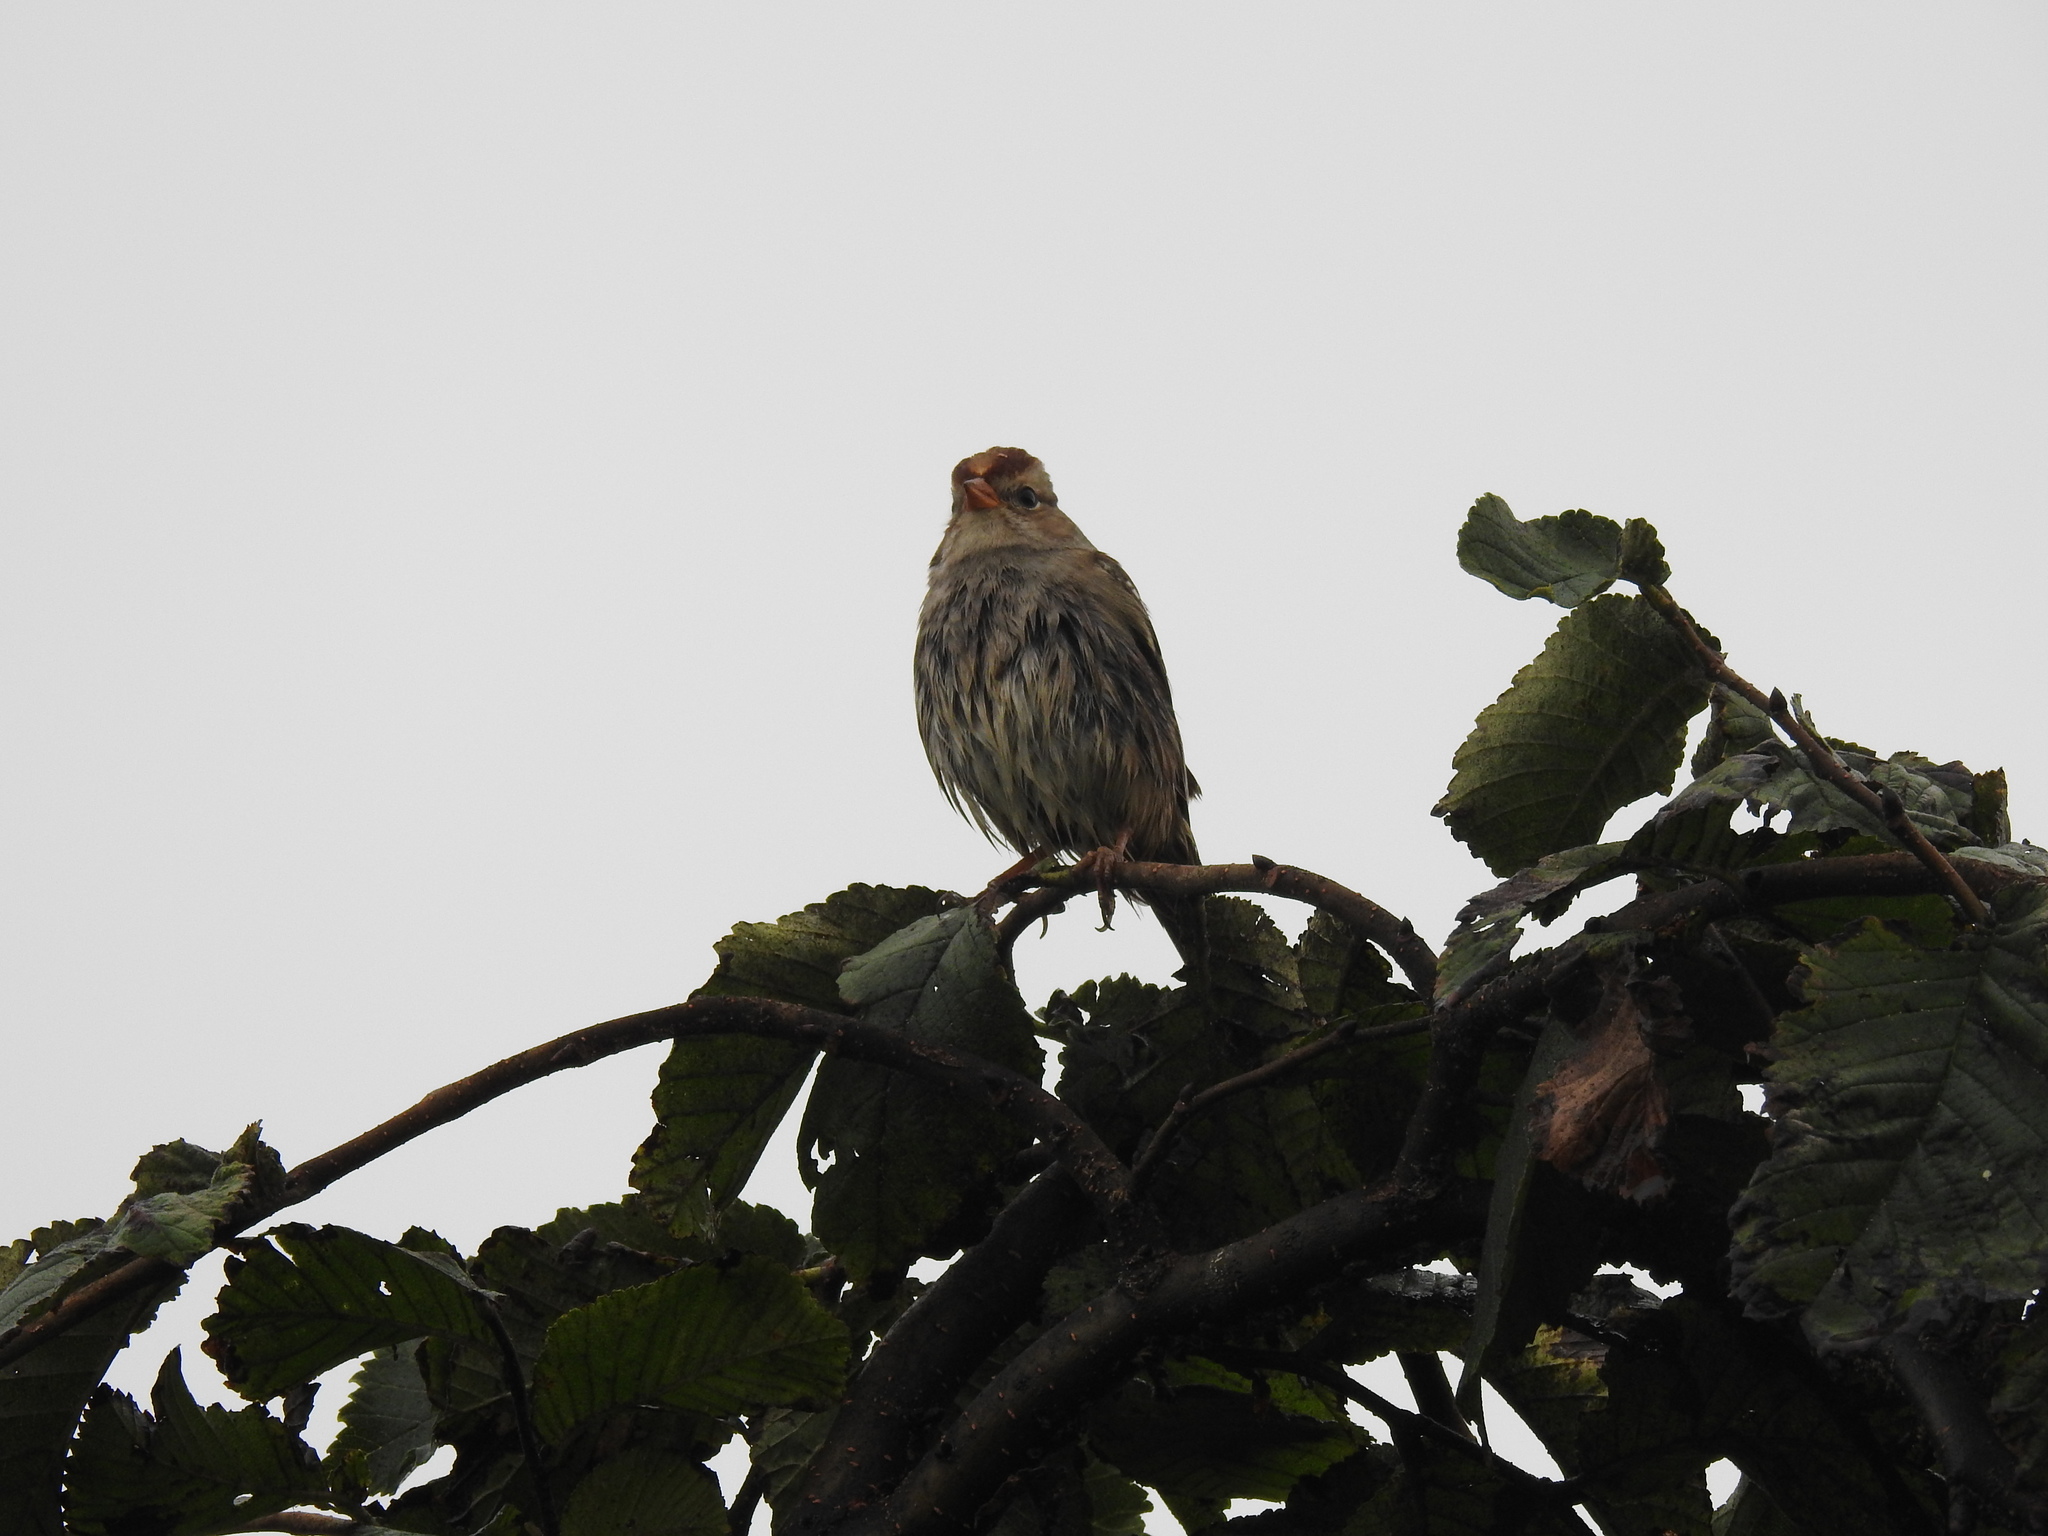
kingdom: Animalia
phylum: Chordata
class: Aves
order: Passeriformes
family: Passerellidae
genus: Zonotrichia
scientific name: Zonotrichia leucophrys
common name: White-crowned sparrow
